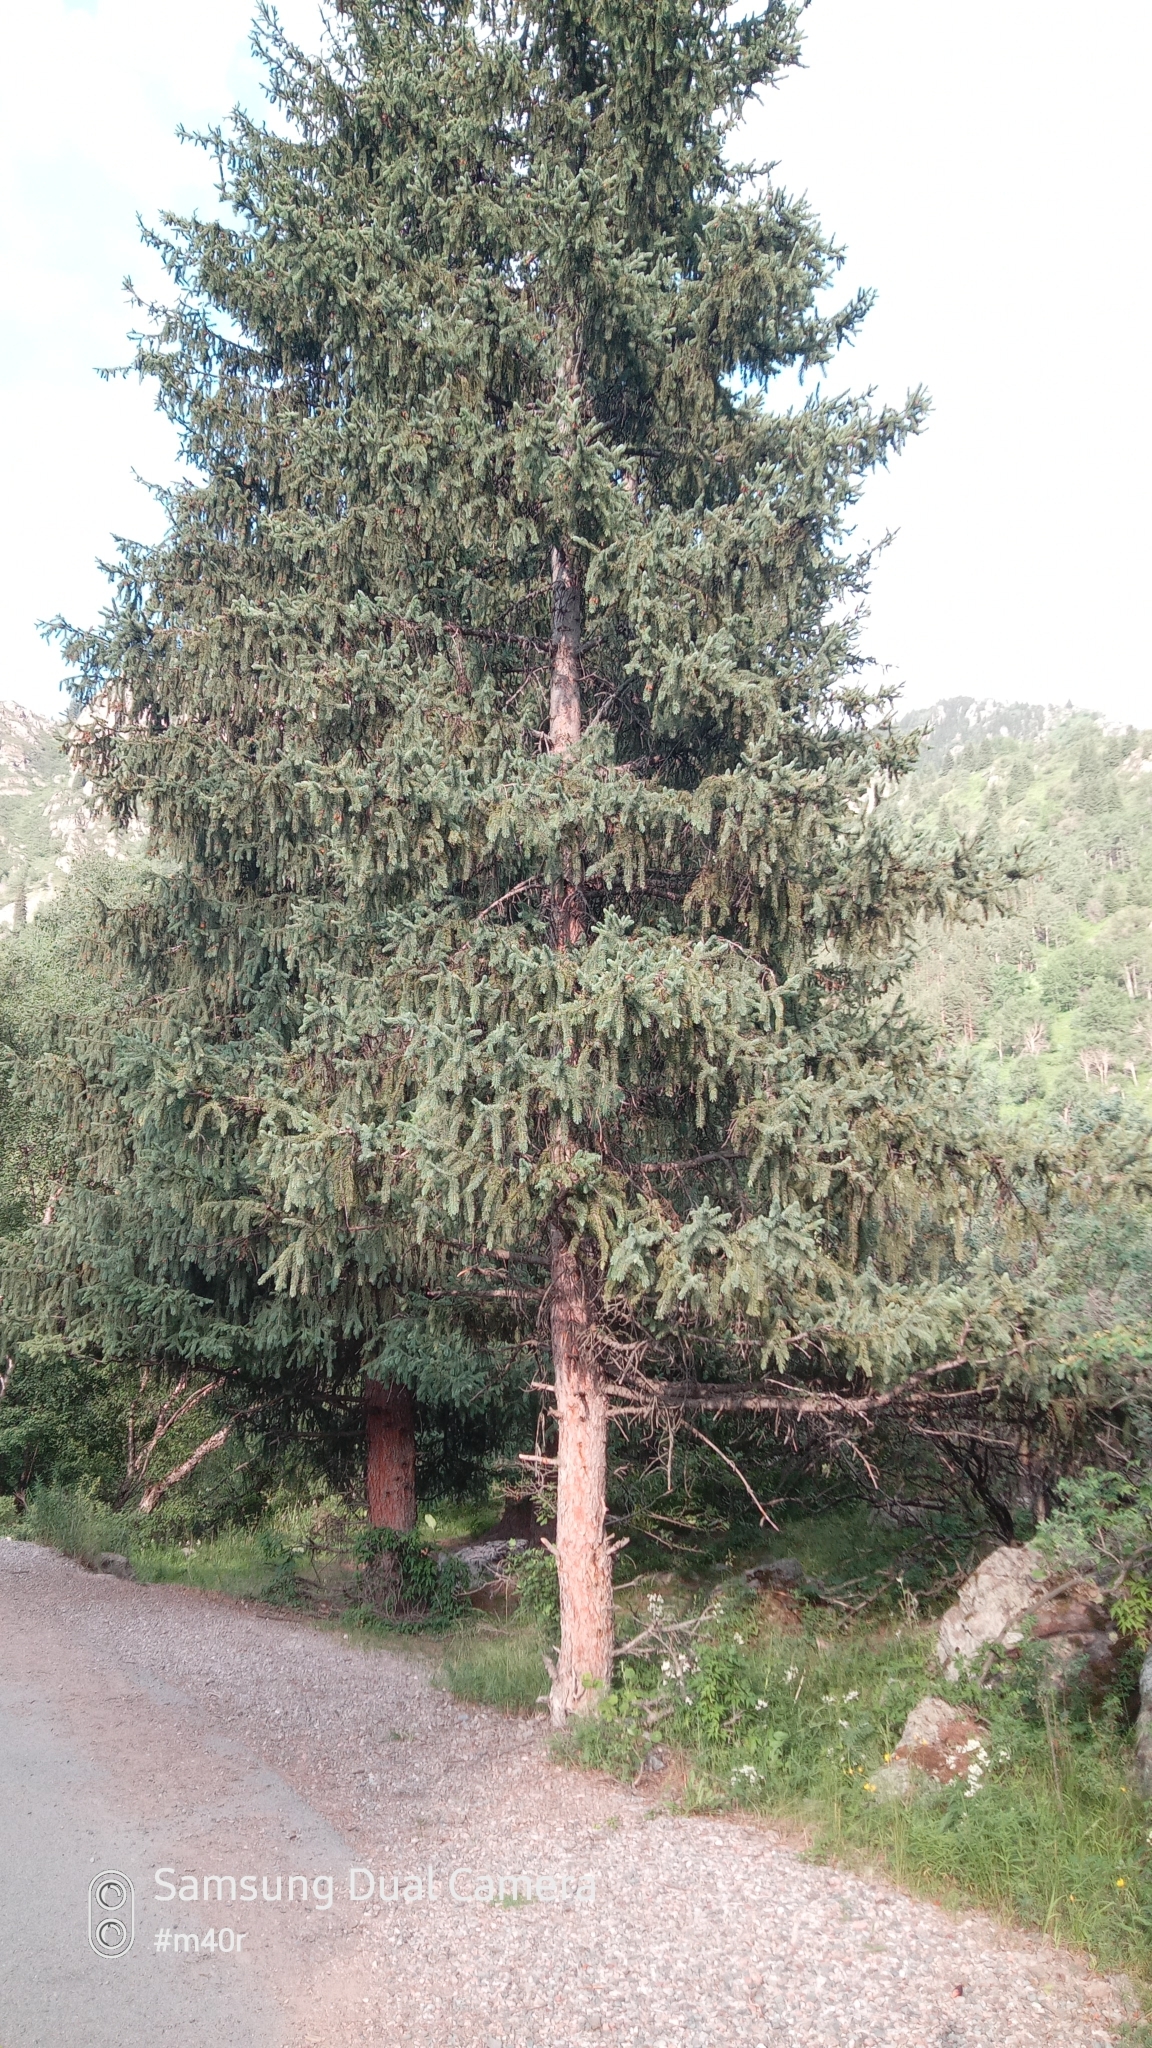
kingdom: Plantae
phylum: Tracheophyta
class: Pinopsida
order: Pinales
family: Pinaceae
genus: Picea
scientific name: Picea schrenkiana
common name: Asian spruce
